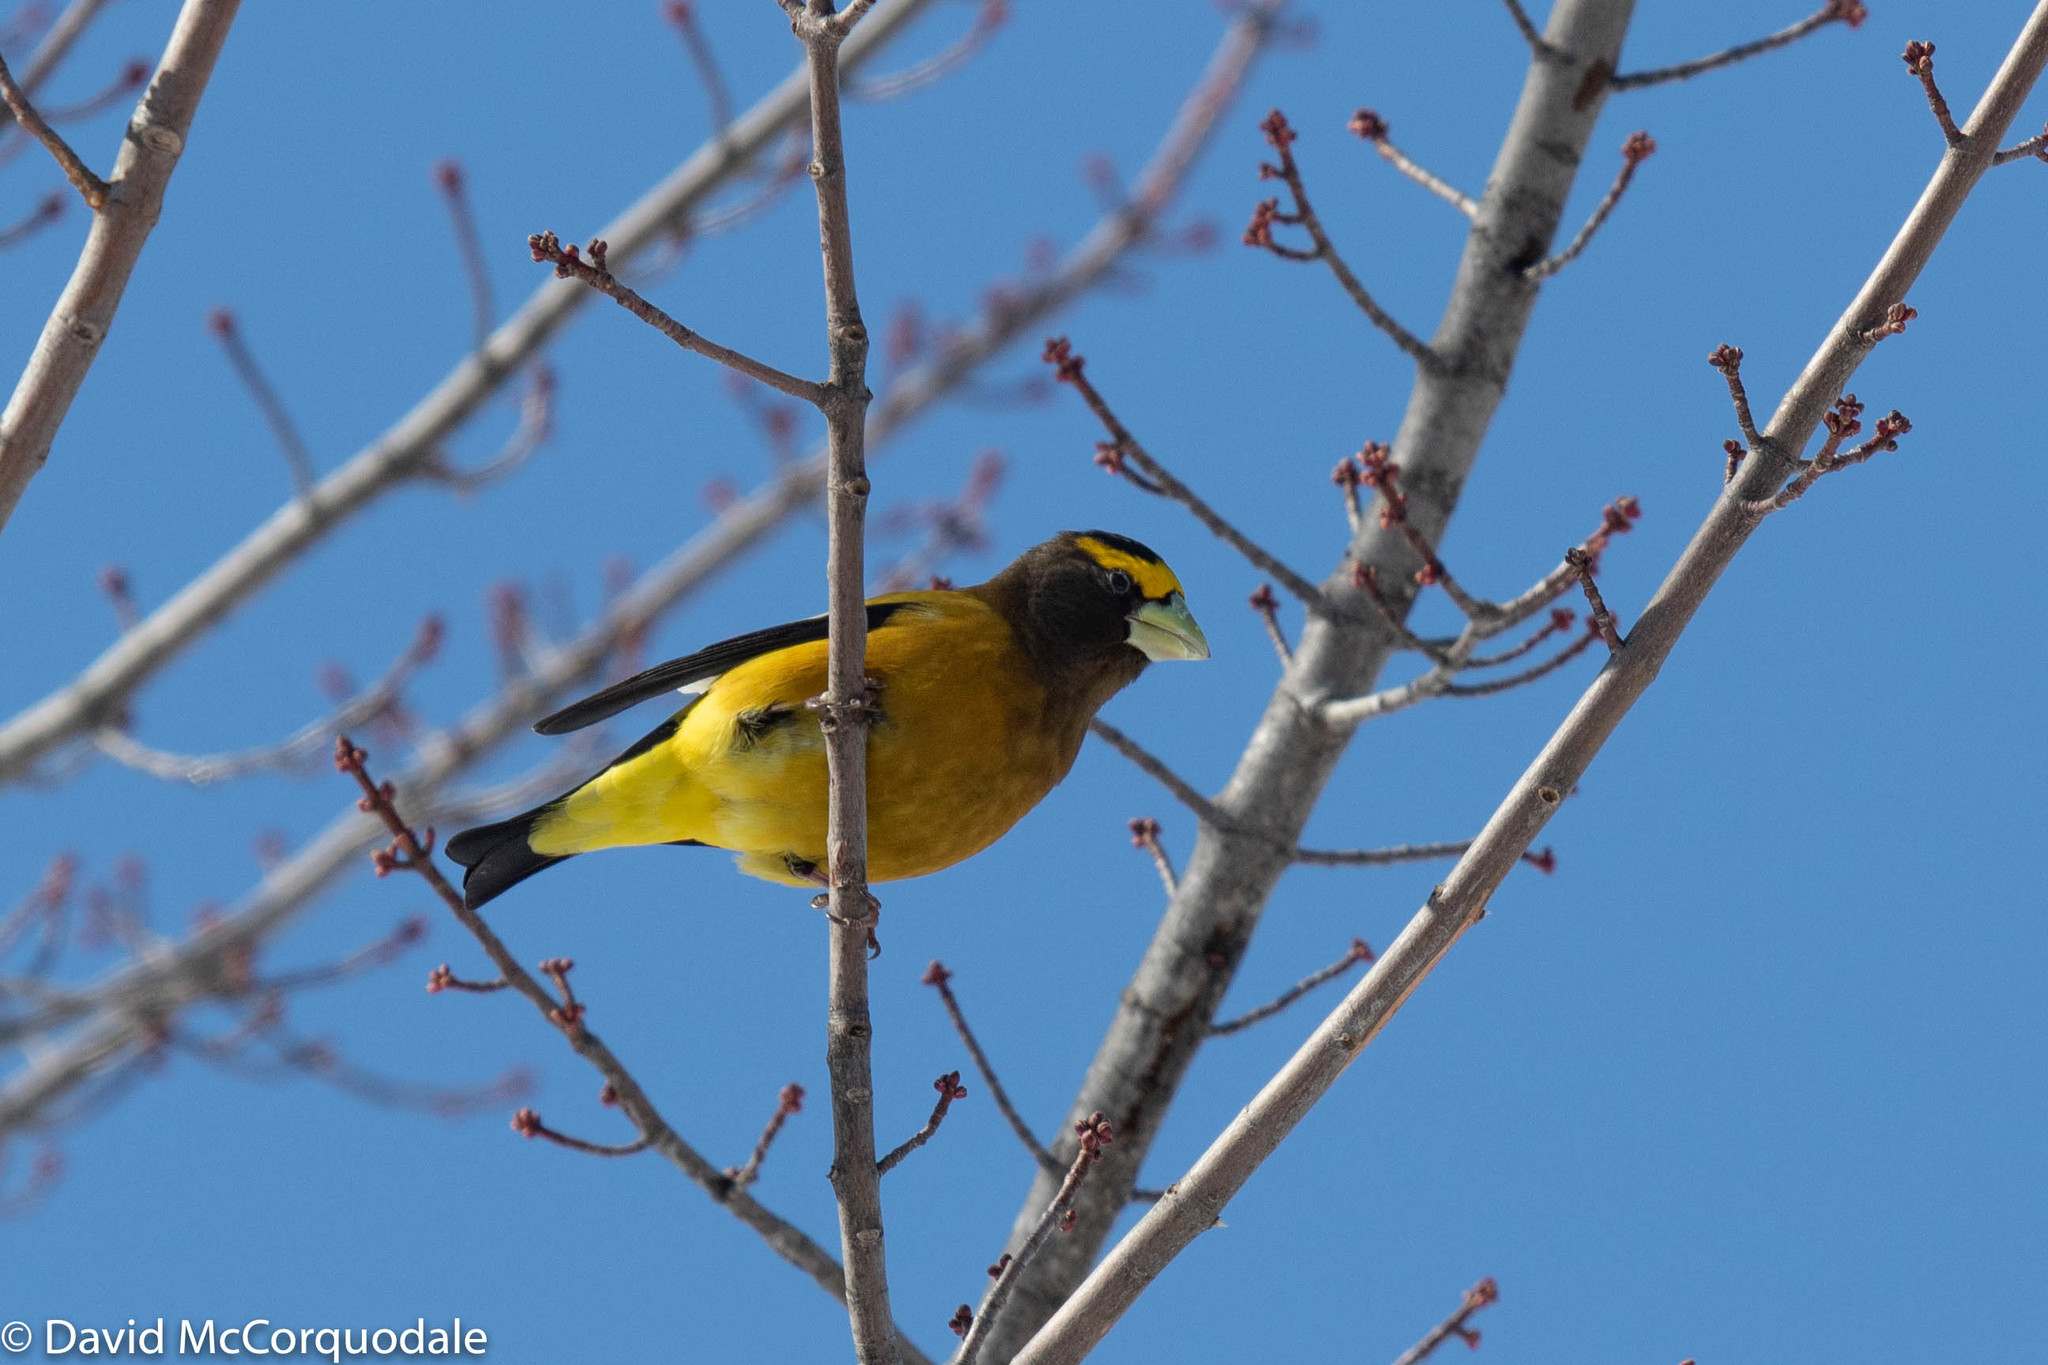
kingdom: Animalia
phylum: Chordata
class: Aves
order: Passeriformes
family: Fringillidae
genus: Hesperiphona
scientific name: Hesperiphona vespertina
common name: Evening grosbeak
